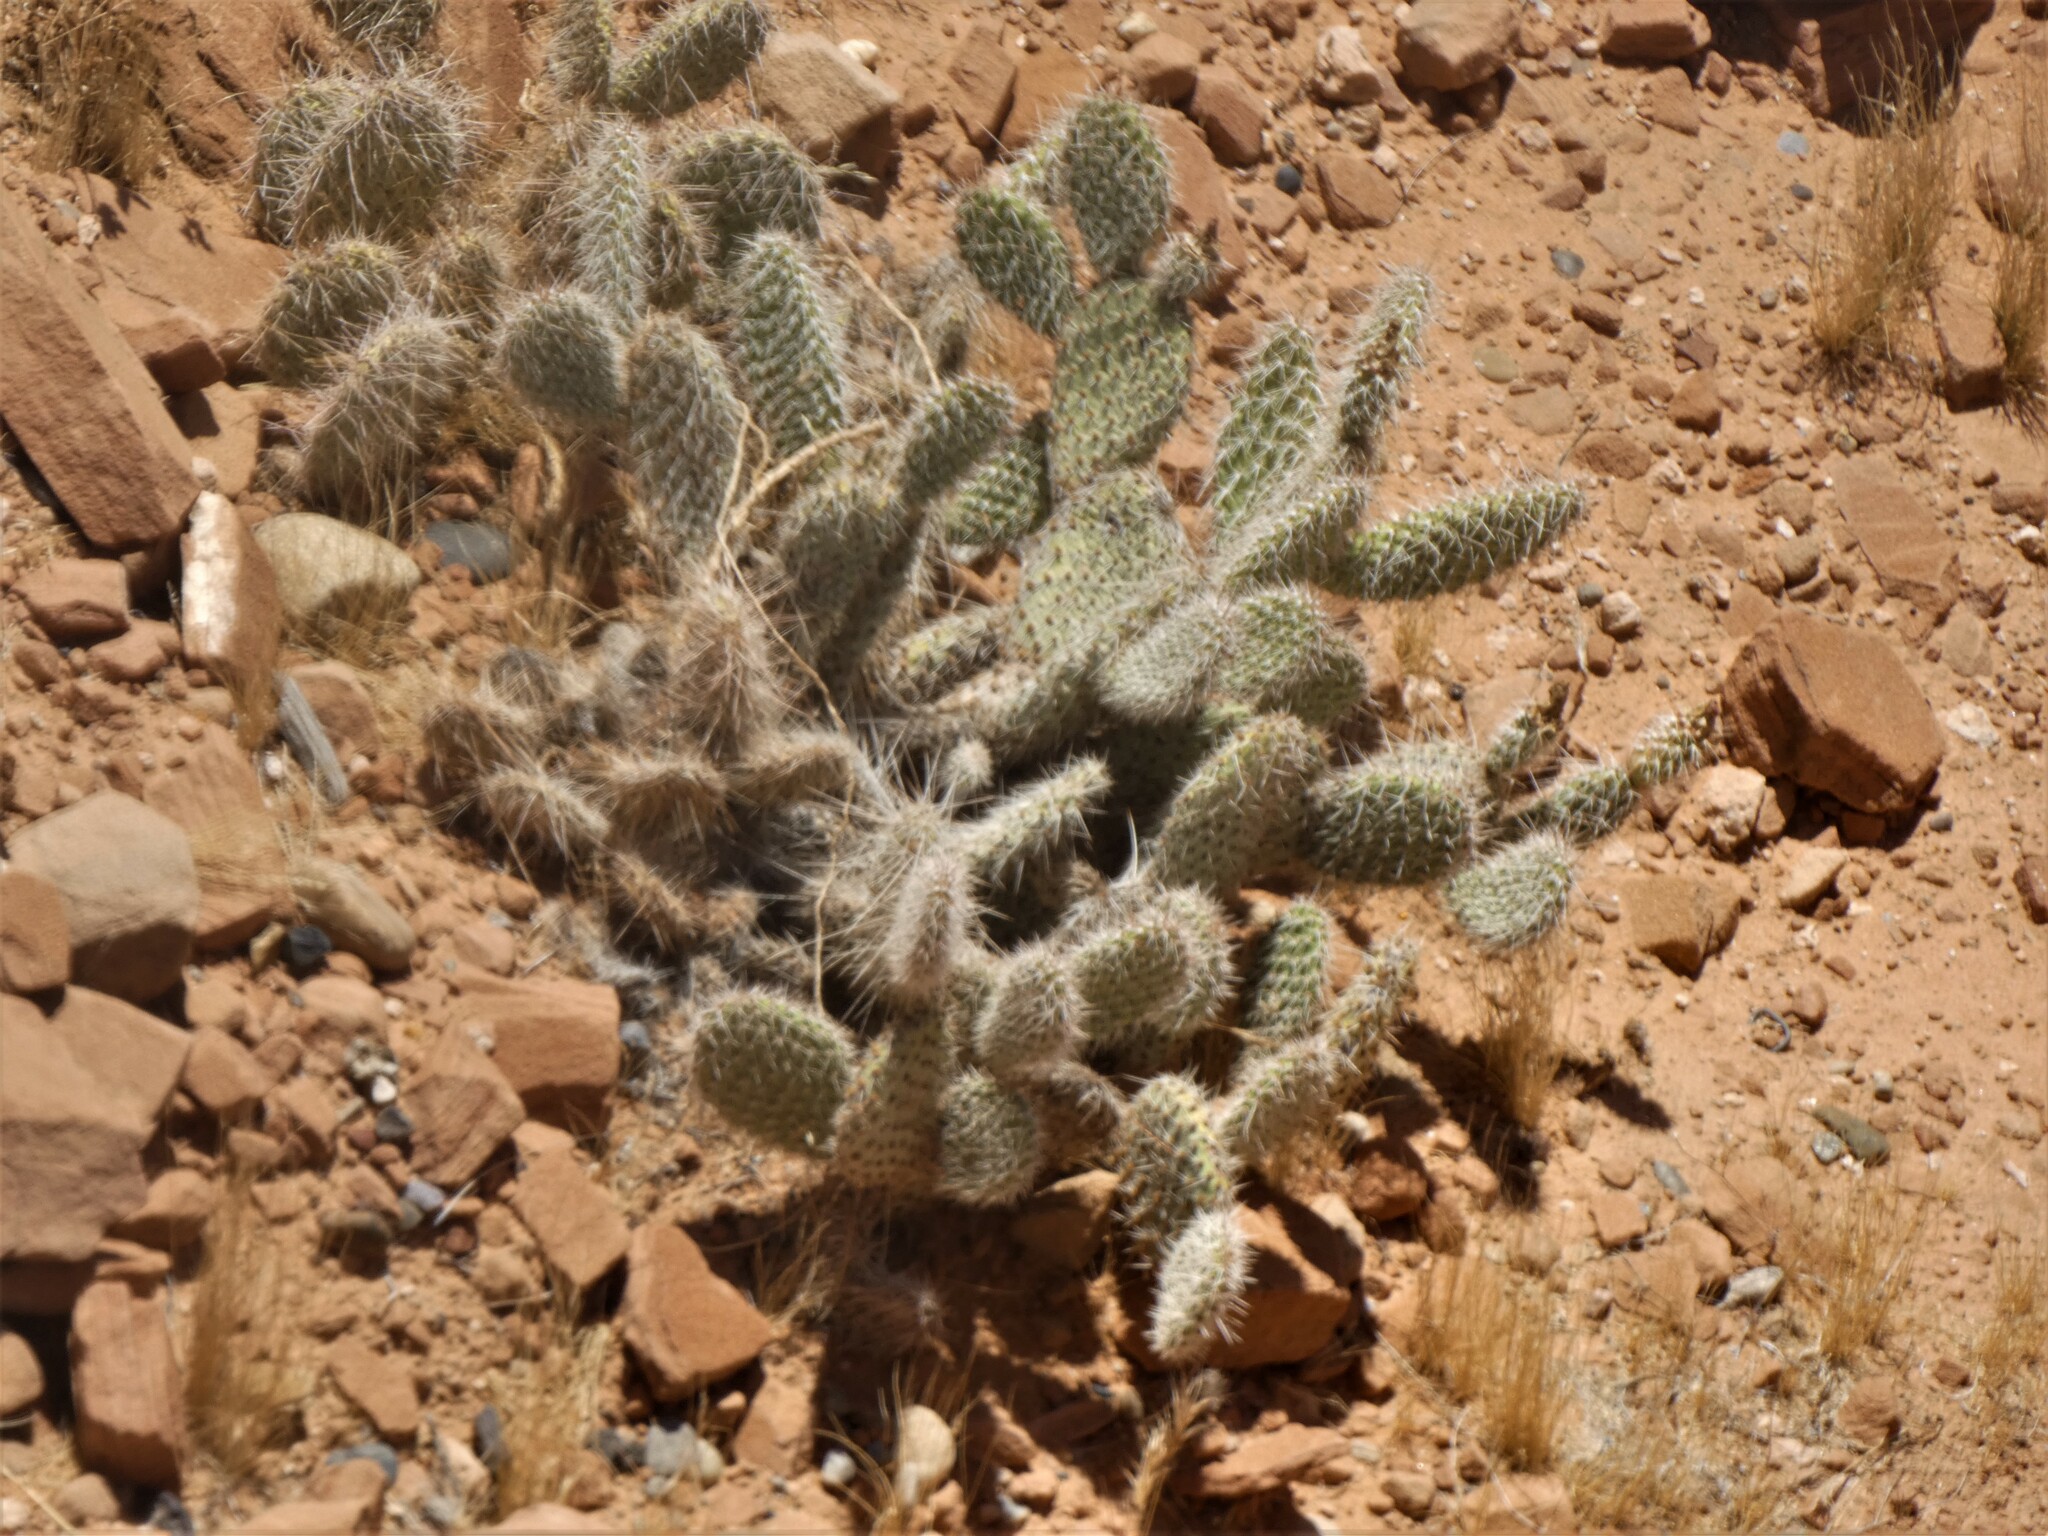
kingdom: Plantae
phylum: Tracheophyta
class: Magnoliopsida
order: Caryophyllales
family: Cactaceae
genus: Opuntia
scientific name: Opuntia polyacantha
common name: Plains prickly-pear
